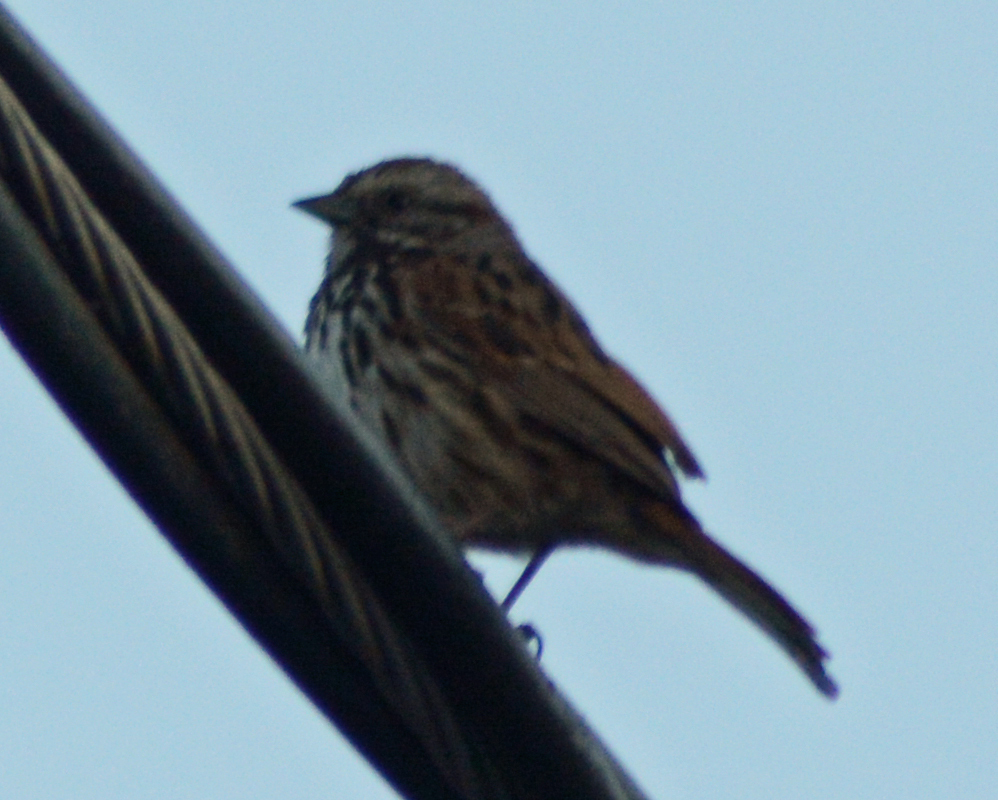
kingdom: Animalia
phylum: Chordata
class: Aves
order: Passeriformes
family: Passerellidae
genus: Melospiza
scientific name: Melospiza melodia
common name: Song sparrow
